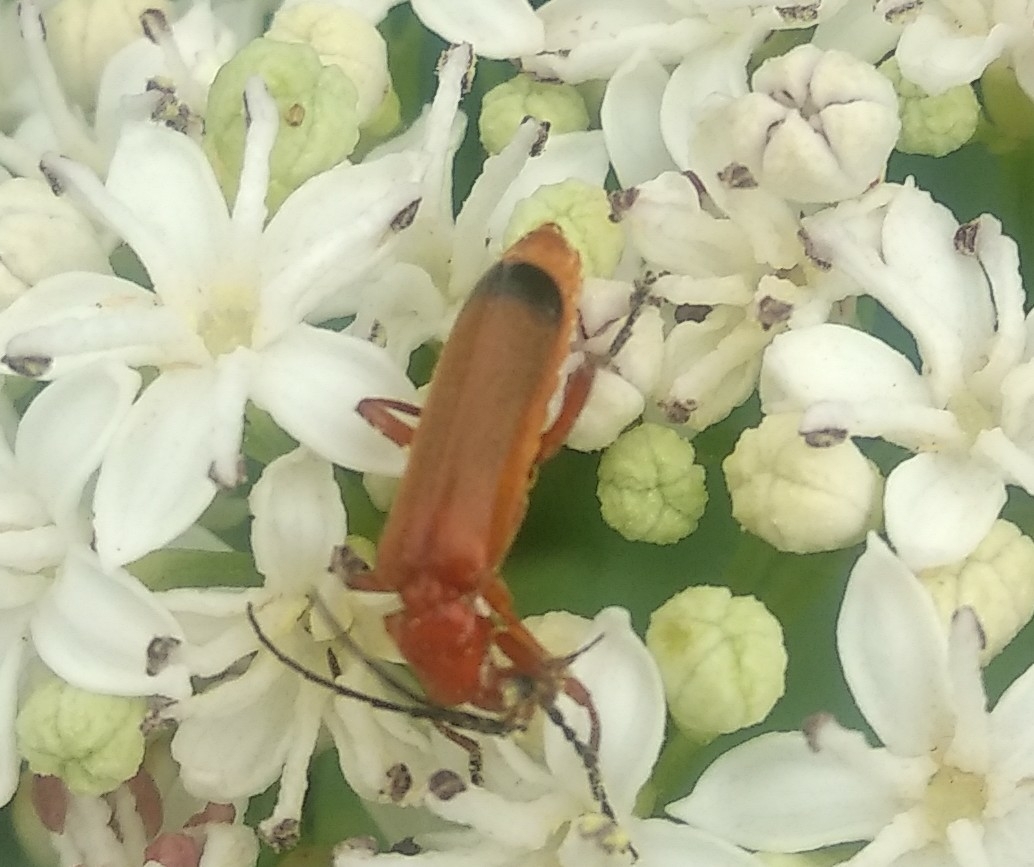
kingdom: Animalia
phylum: Arthropoda
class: Insecta
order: Coleoptera
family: Cantharidae
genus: Rhagonycha
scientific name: Rhagonycha fulva
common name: Common red soldier beetle
